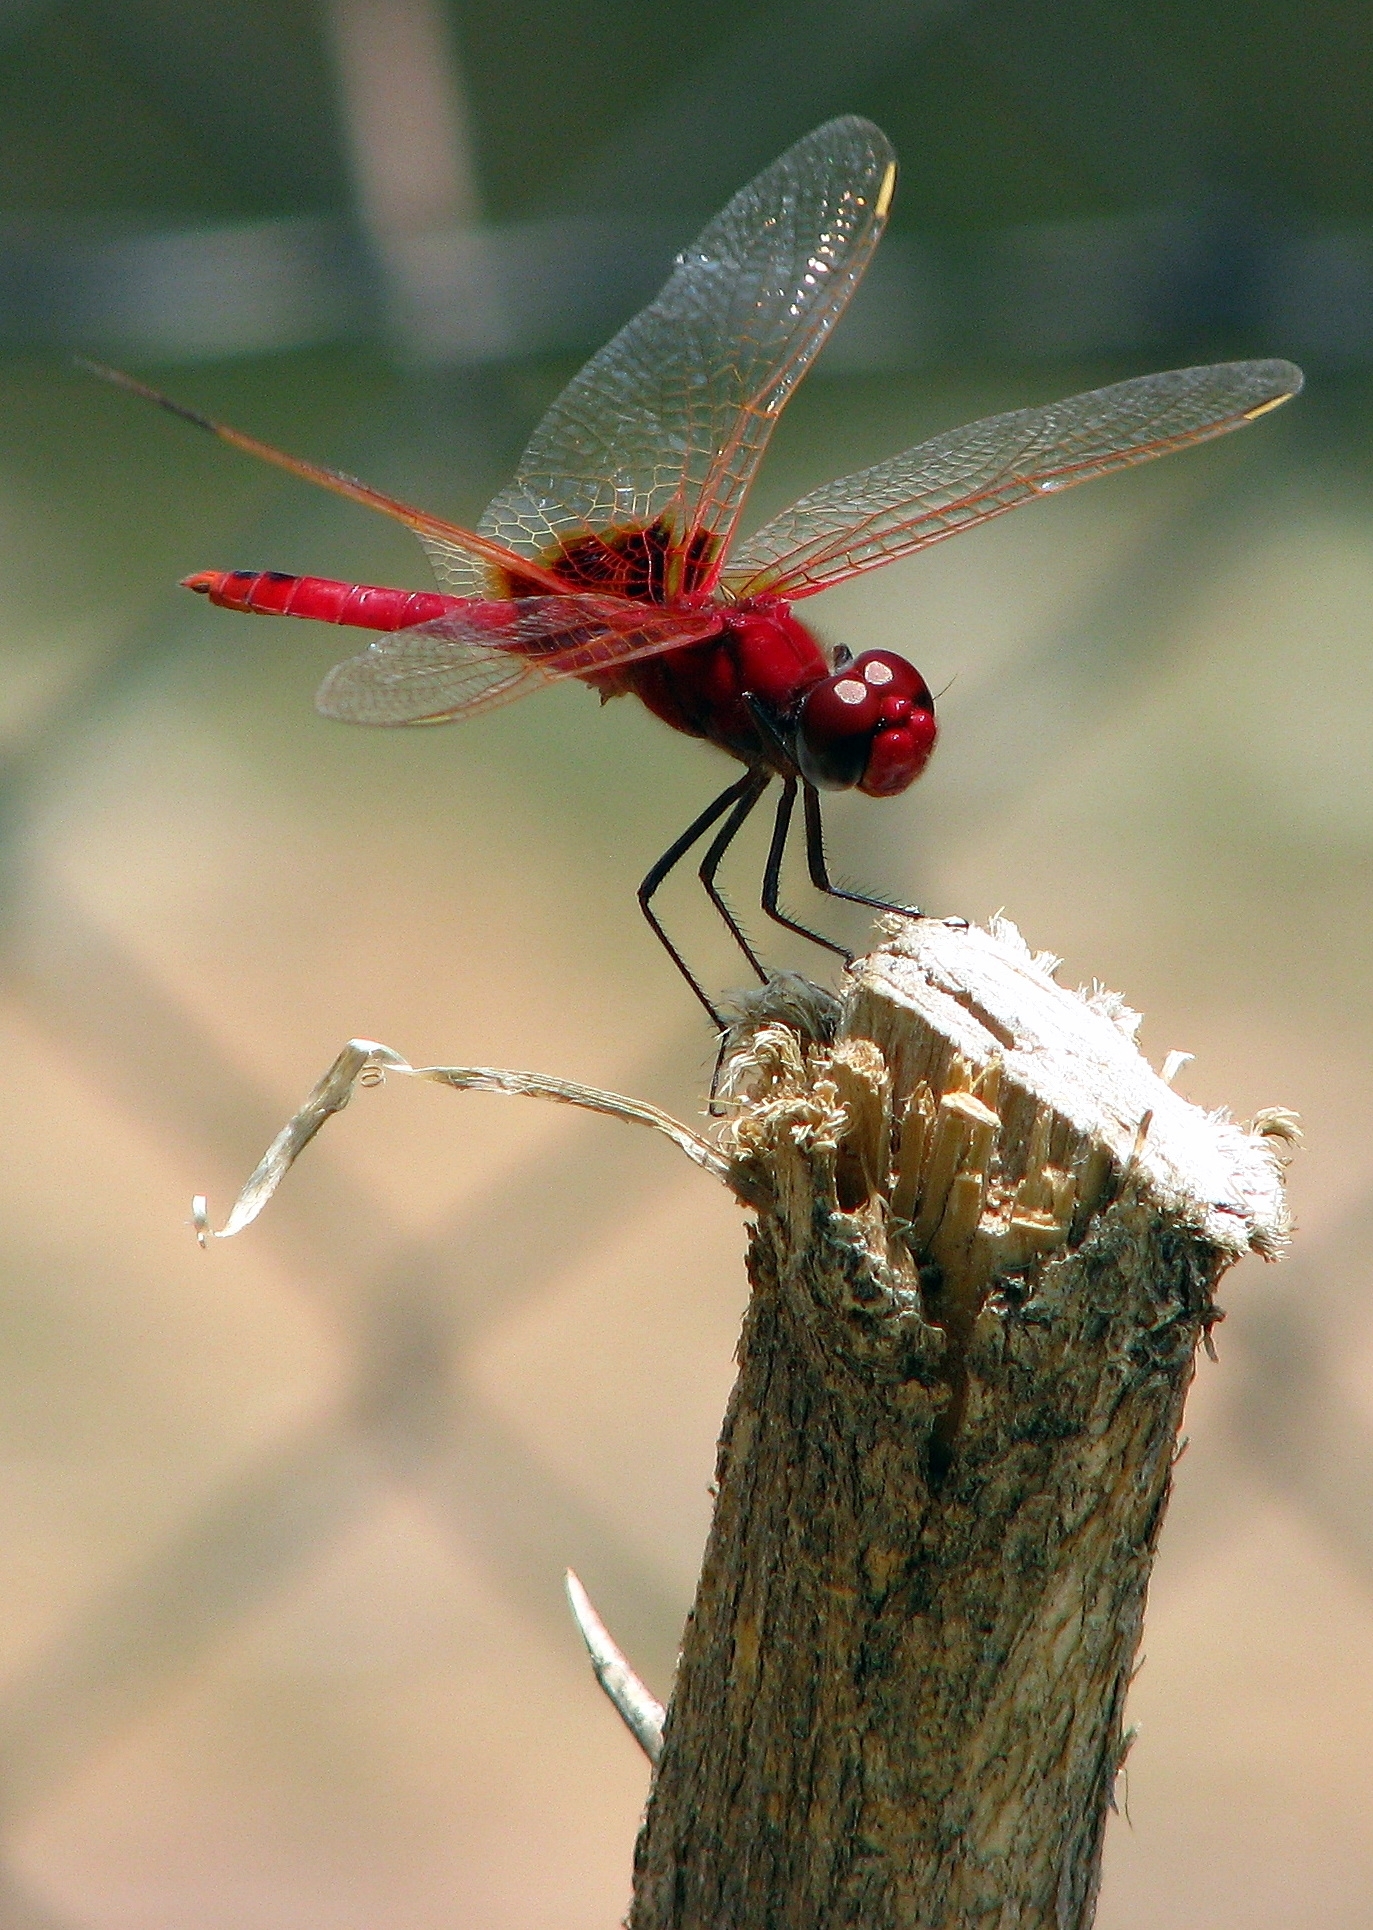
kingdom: Animalia
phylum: Arthropoda
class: Insecta
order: Odonata
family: Libellulidae
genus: Urothemis
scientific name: Urothemis assignata
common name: Red basker
